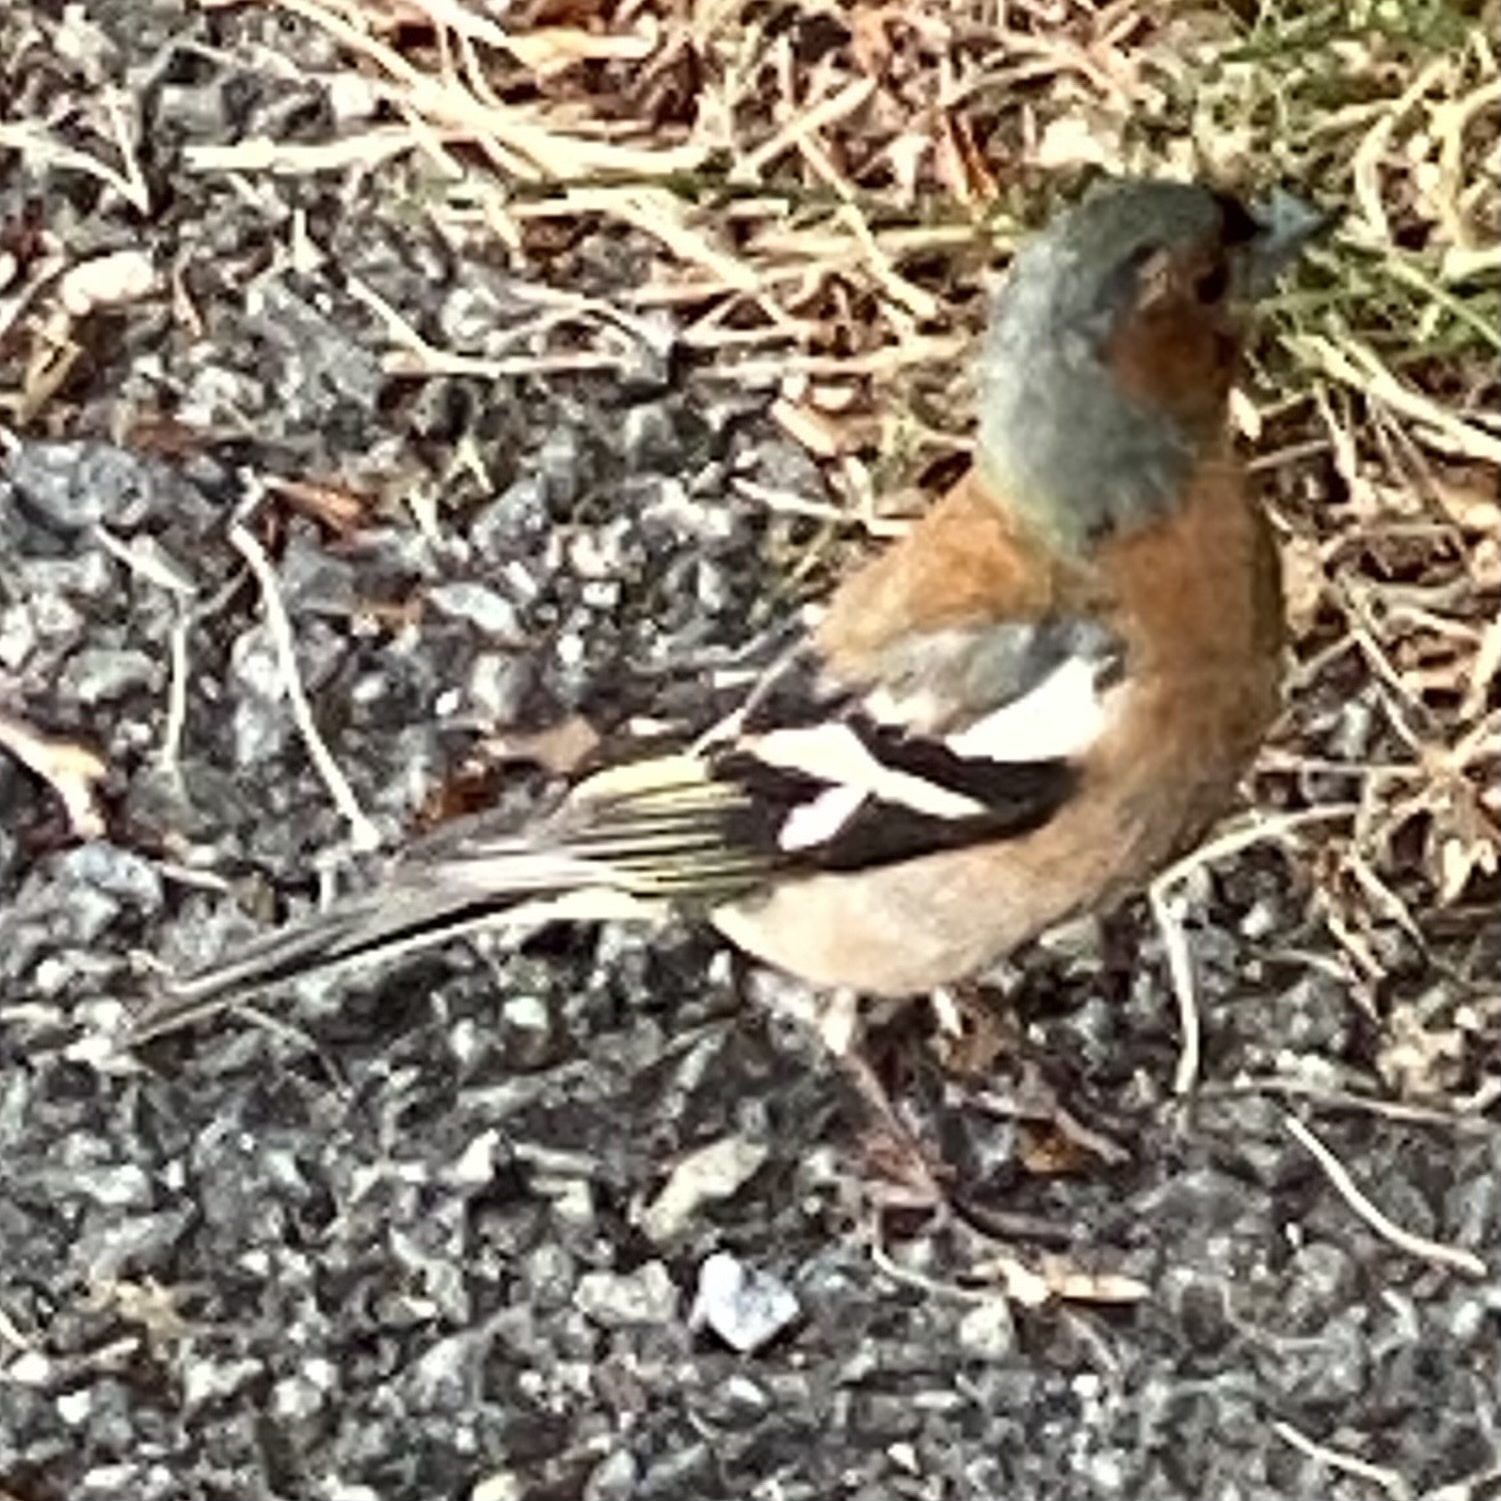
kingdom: Animalia
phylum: Chordata
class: Aves
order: Passeriformes
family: Fringillidae
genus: Fringilla
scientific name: Fringilla coelebs
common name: Common chaffinch
